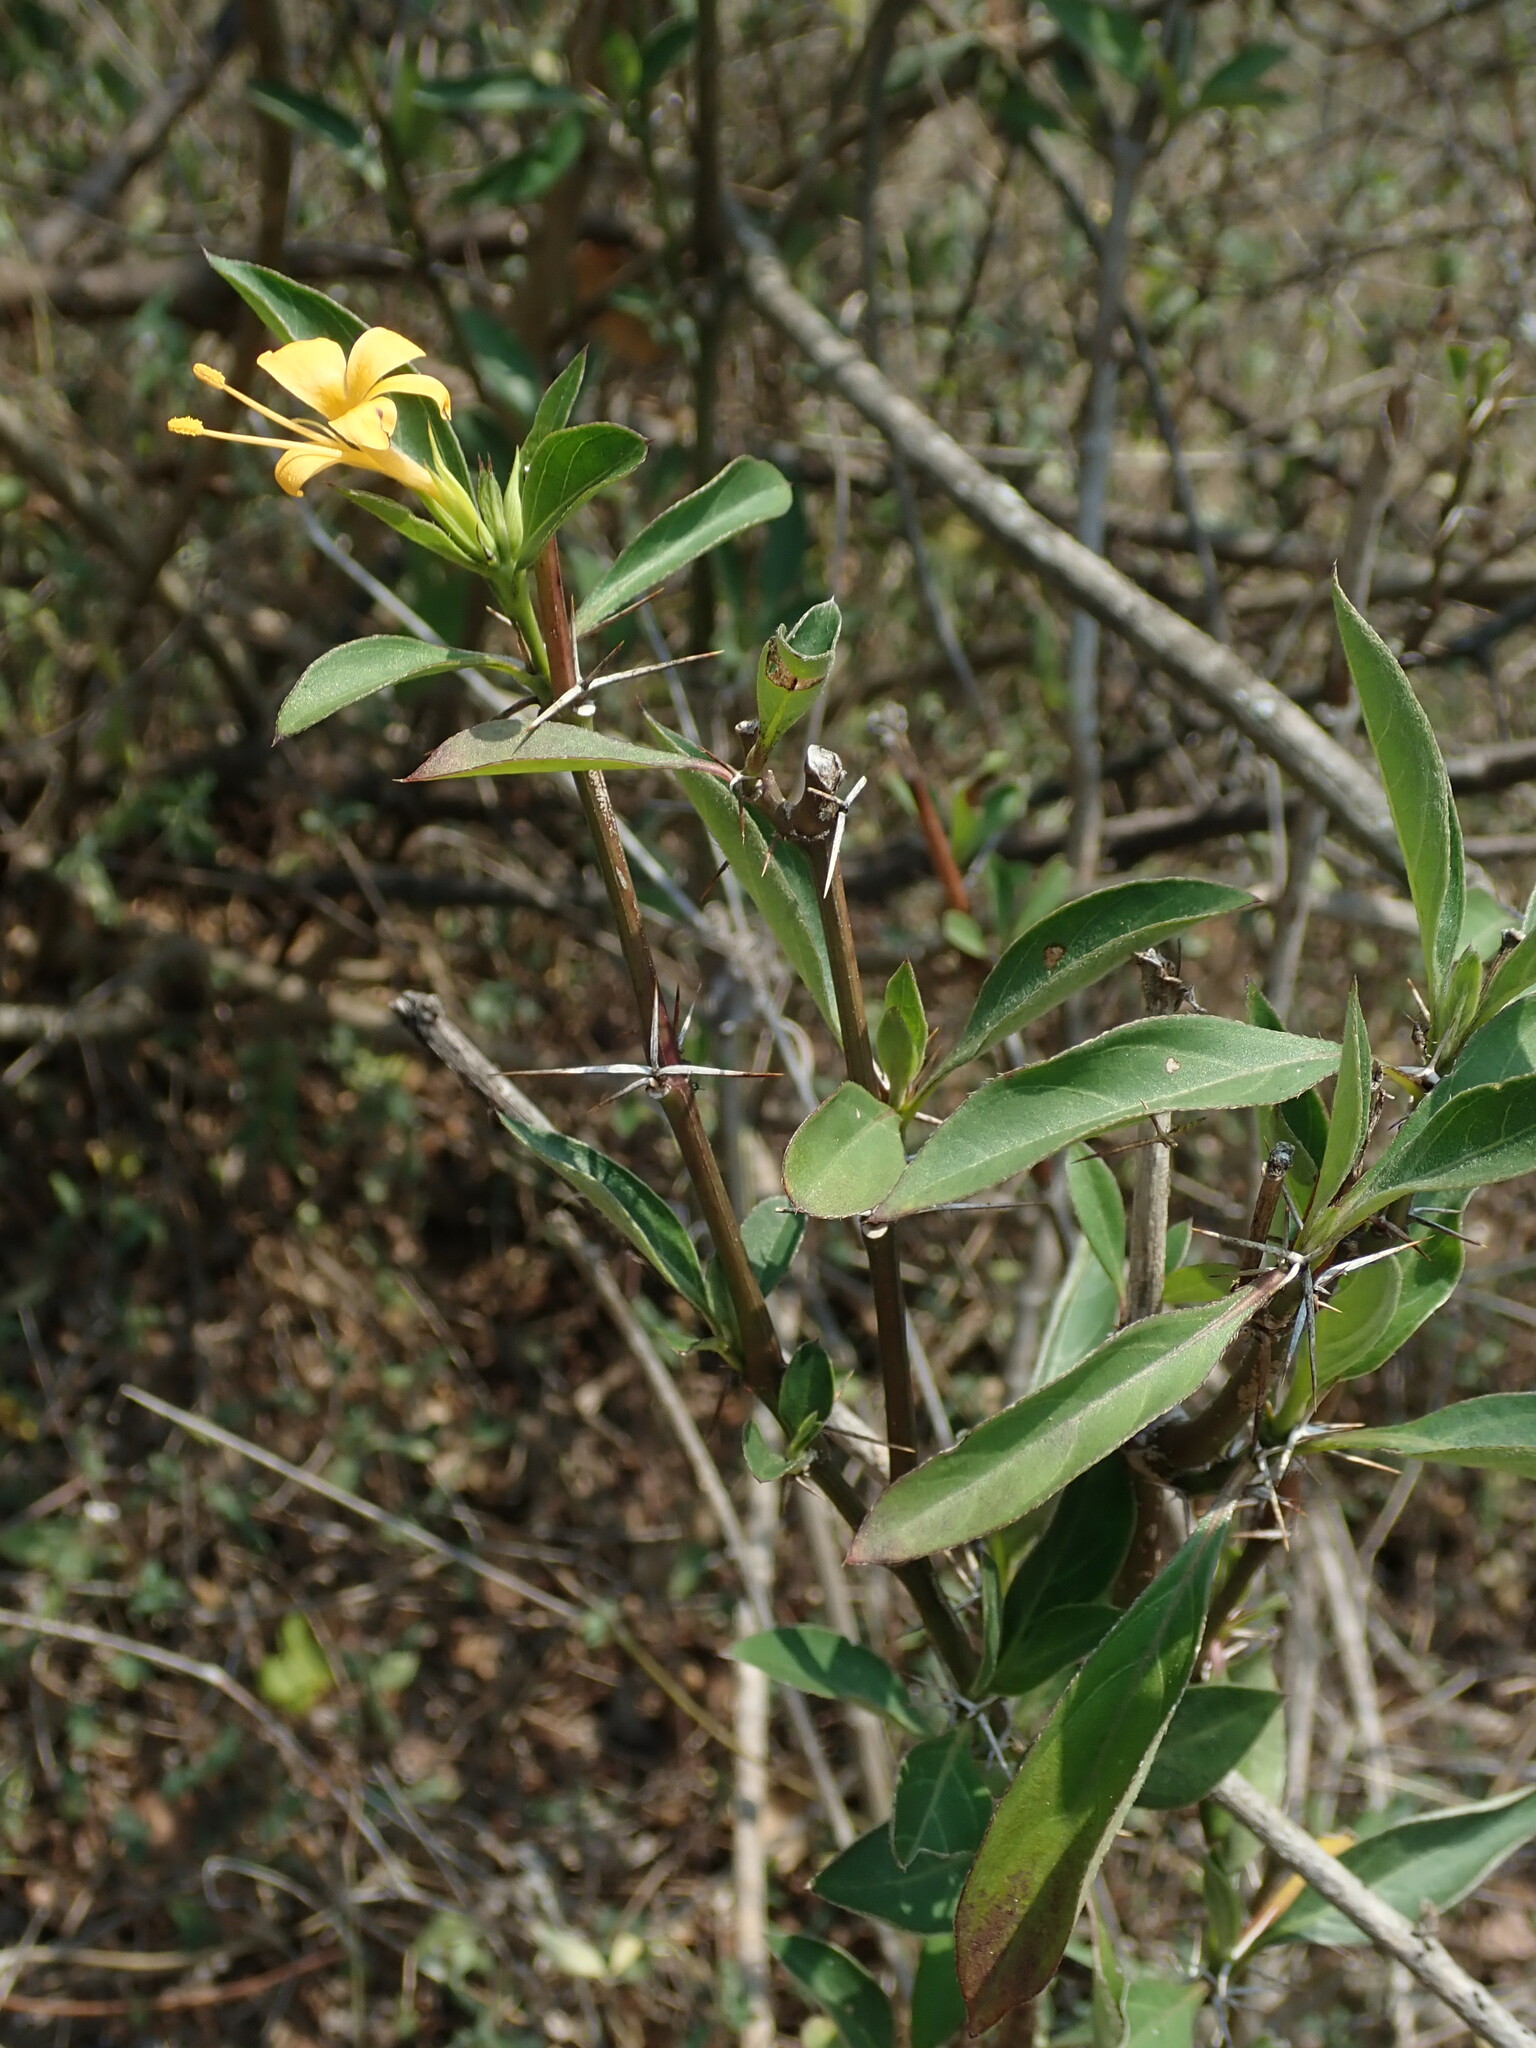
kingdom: Plantae
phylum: Tracheophyta
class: Magnoliopsida
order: Lamiales
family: Acanthaceae
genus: Barleria
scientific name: Barleria prionitis
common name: Barleria
